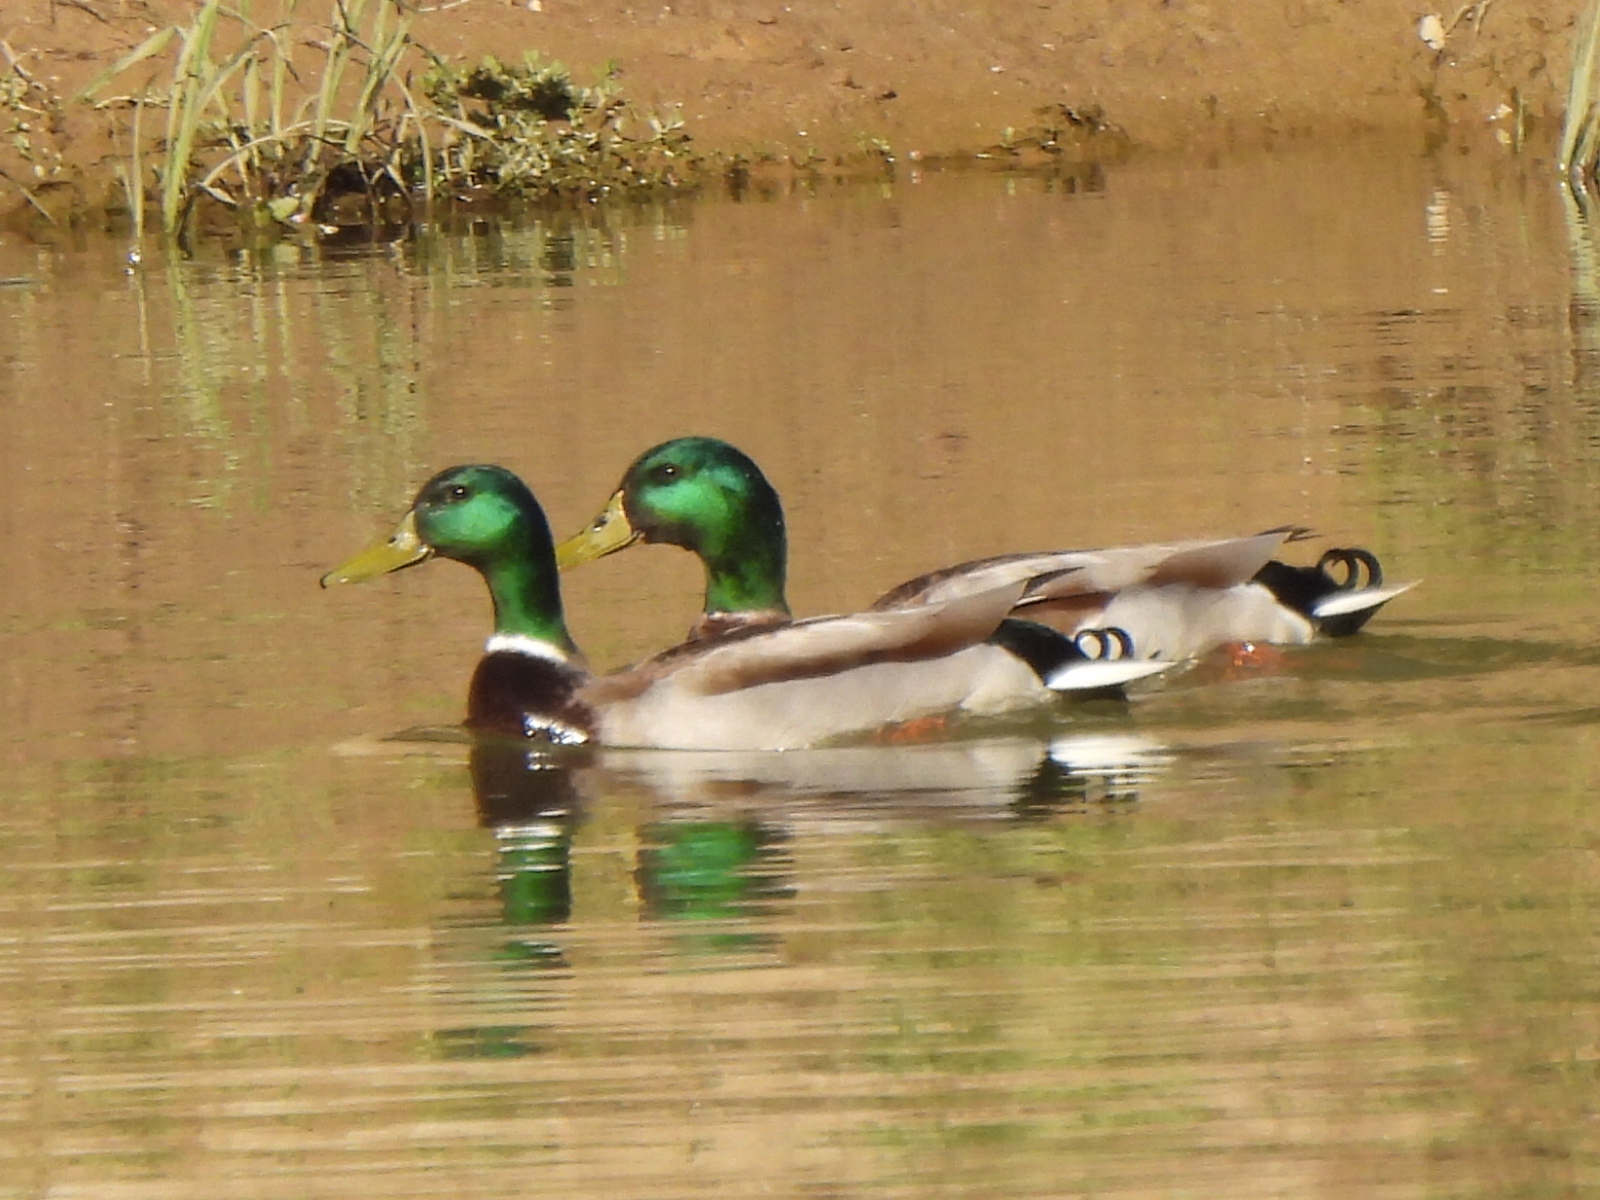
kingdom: Animalia
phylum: Chordata
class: Aves
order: Anseriformes
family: Anatidae
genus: Anas
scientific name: Anas platyrhynchos
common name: Mallard
